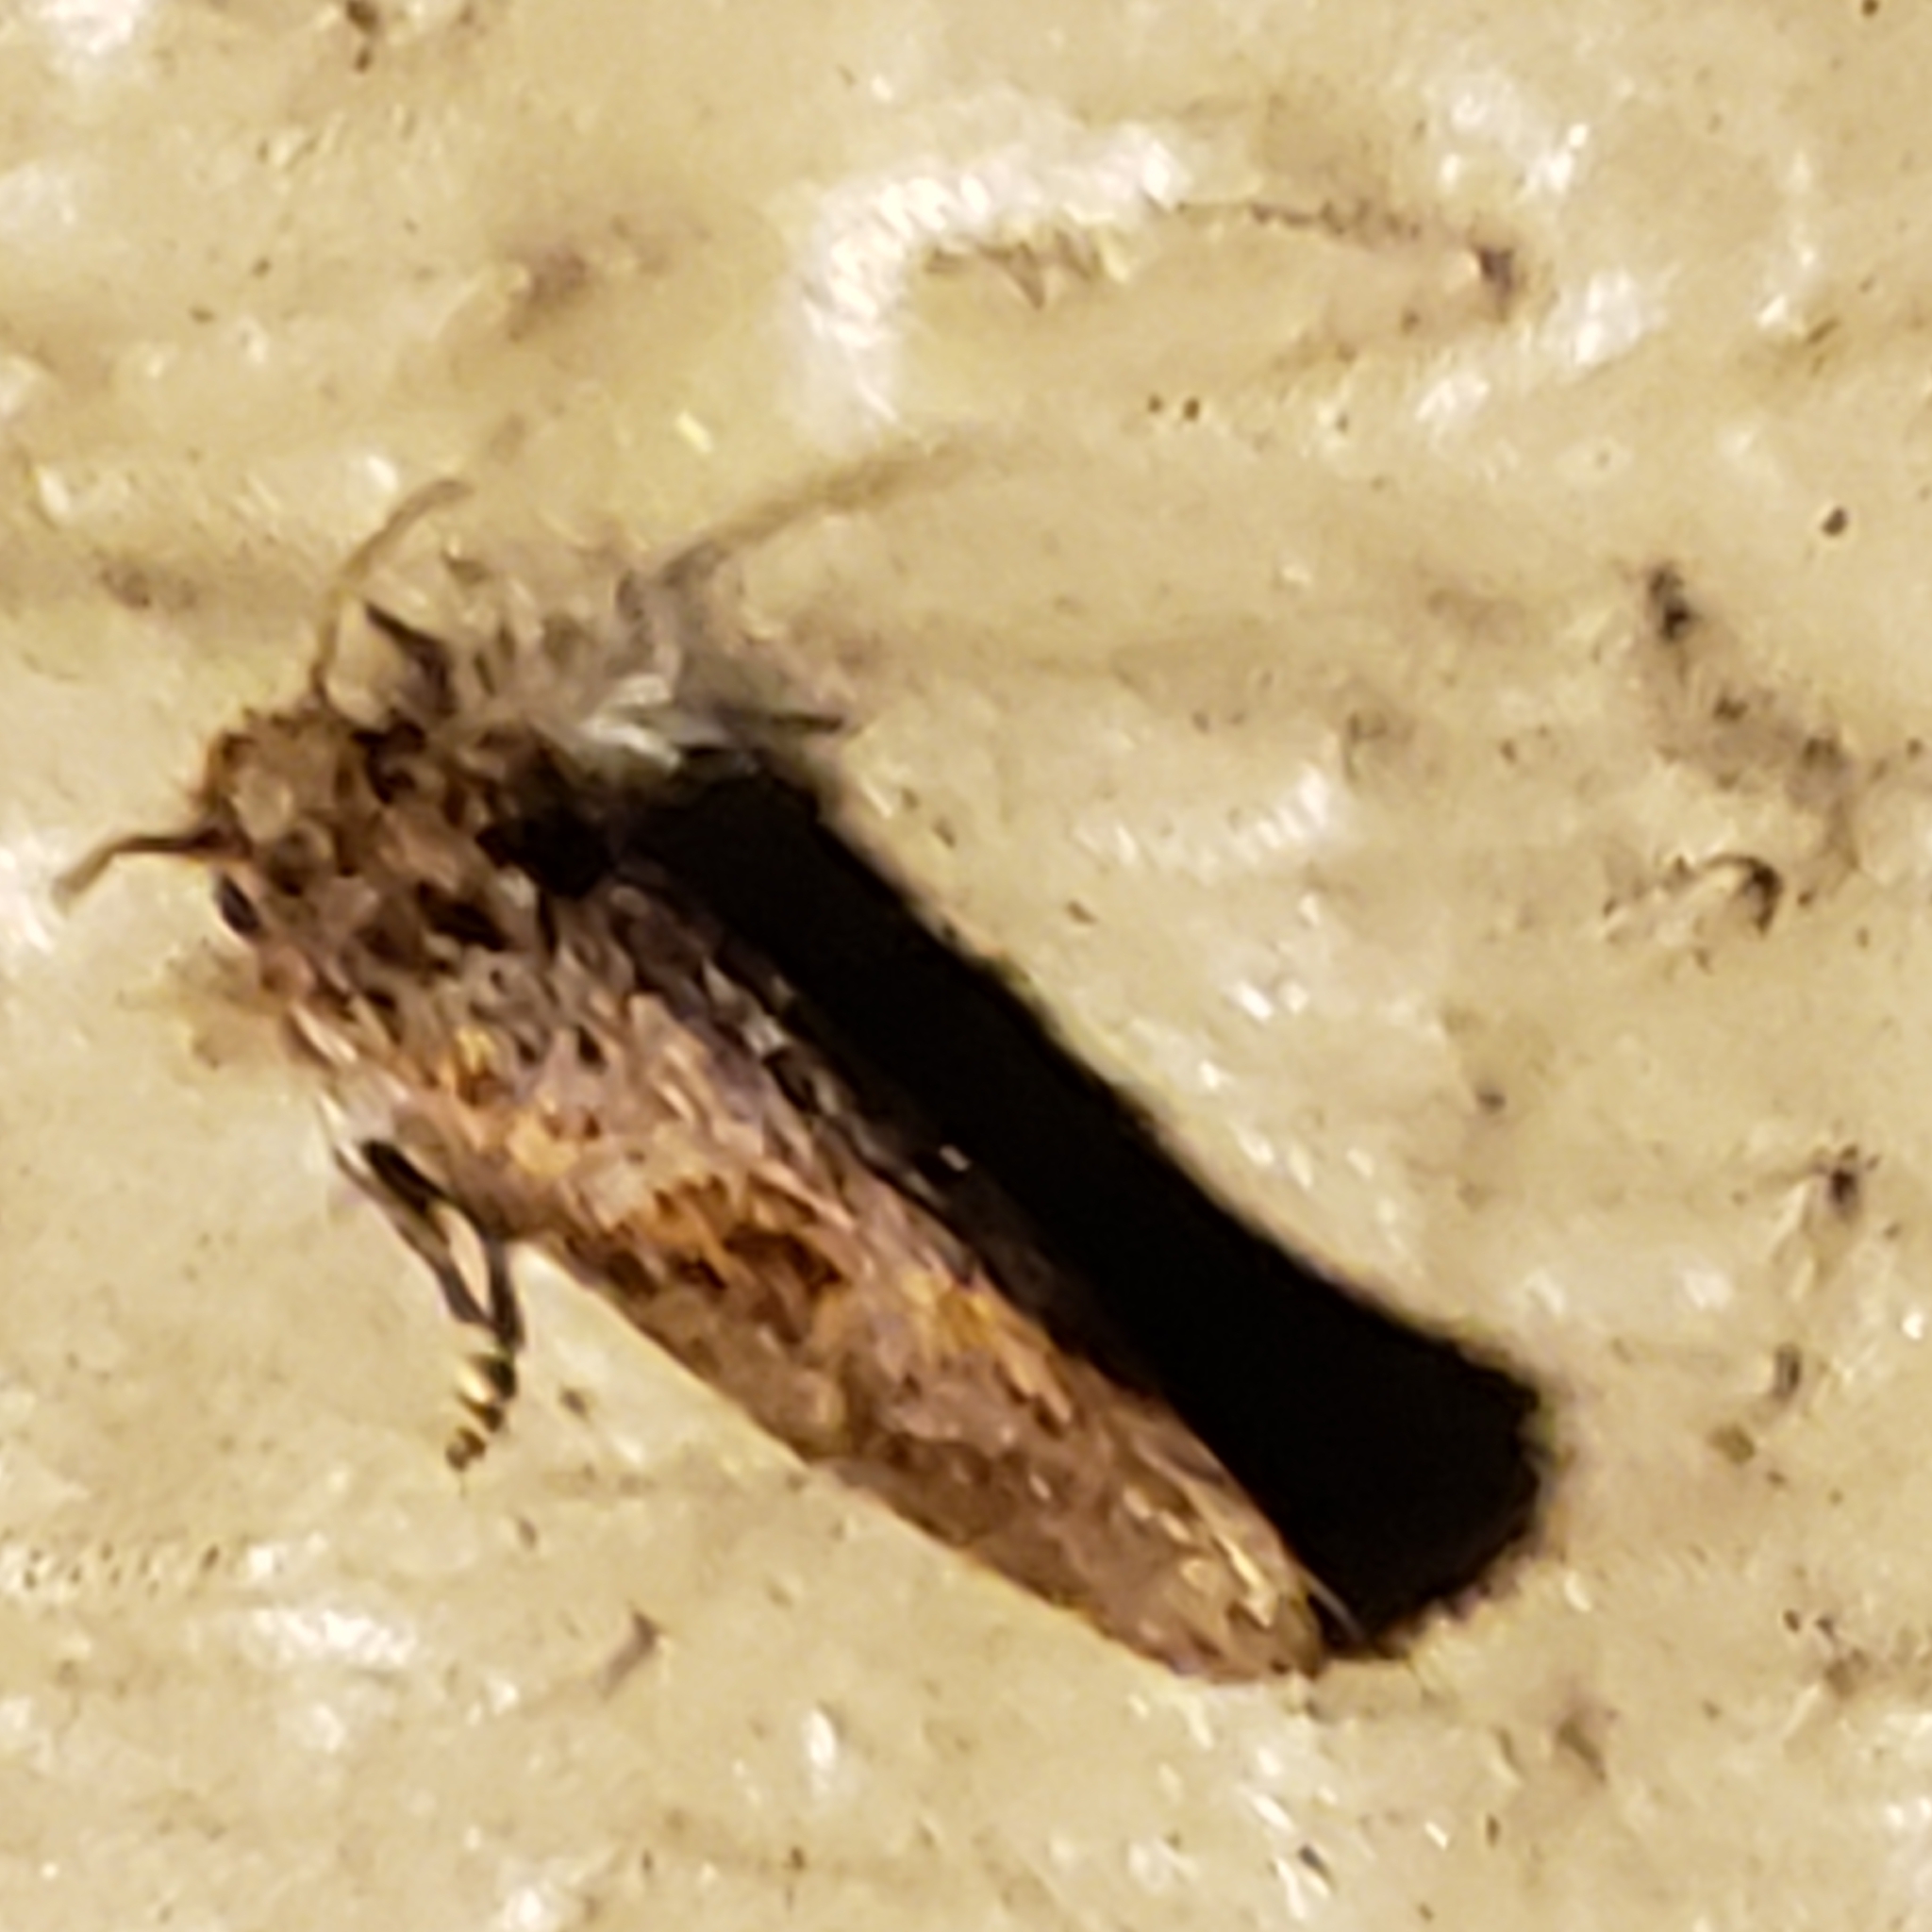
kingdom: Animalia
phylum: Arthropoda
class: Insecta
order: Lepidoptera
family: Tineidae
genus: Acrolophus
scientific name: Acrolophus panamae
